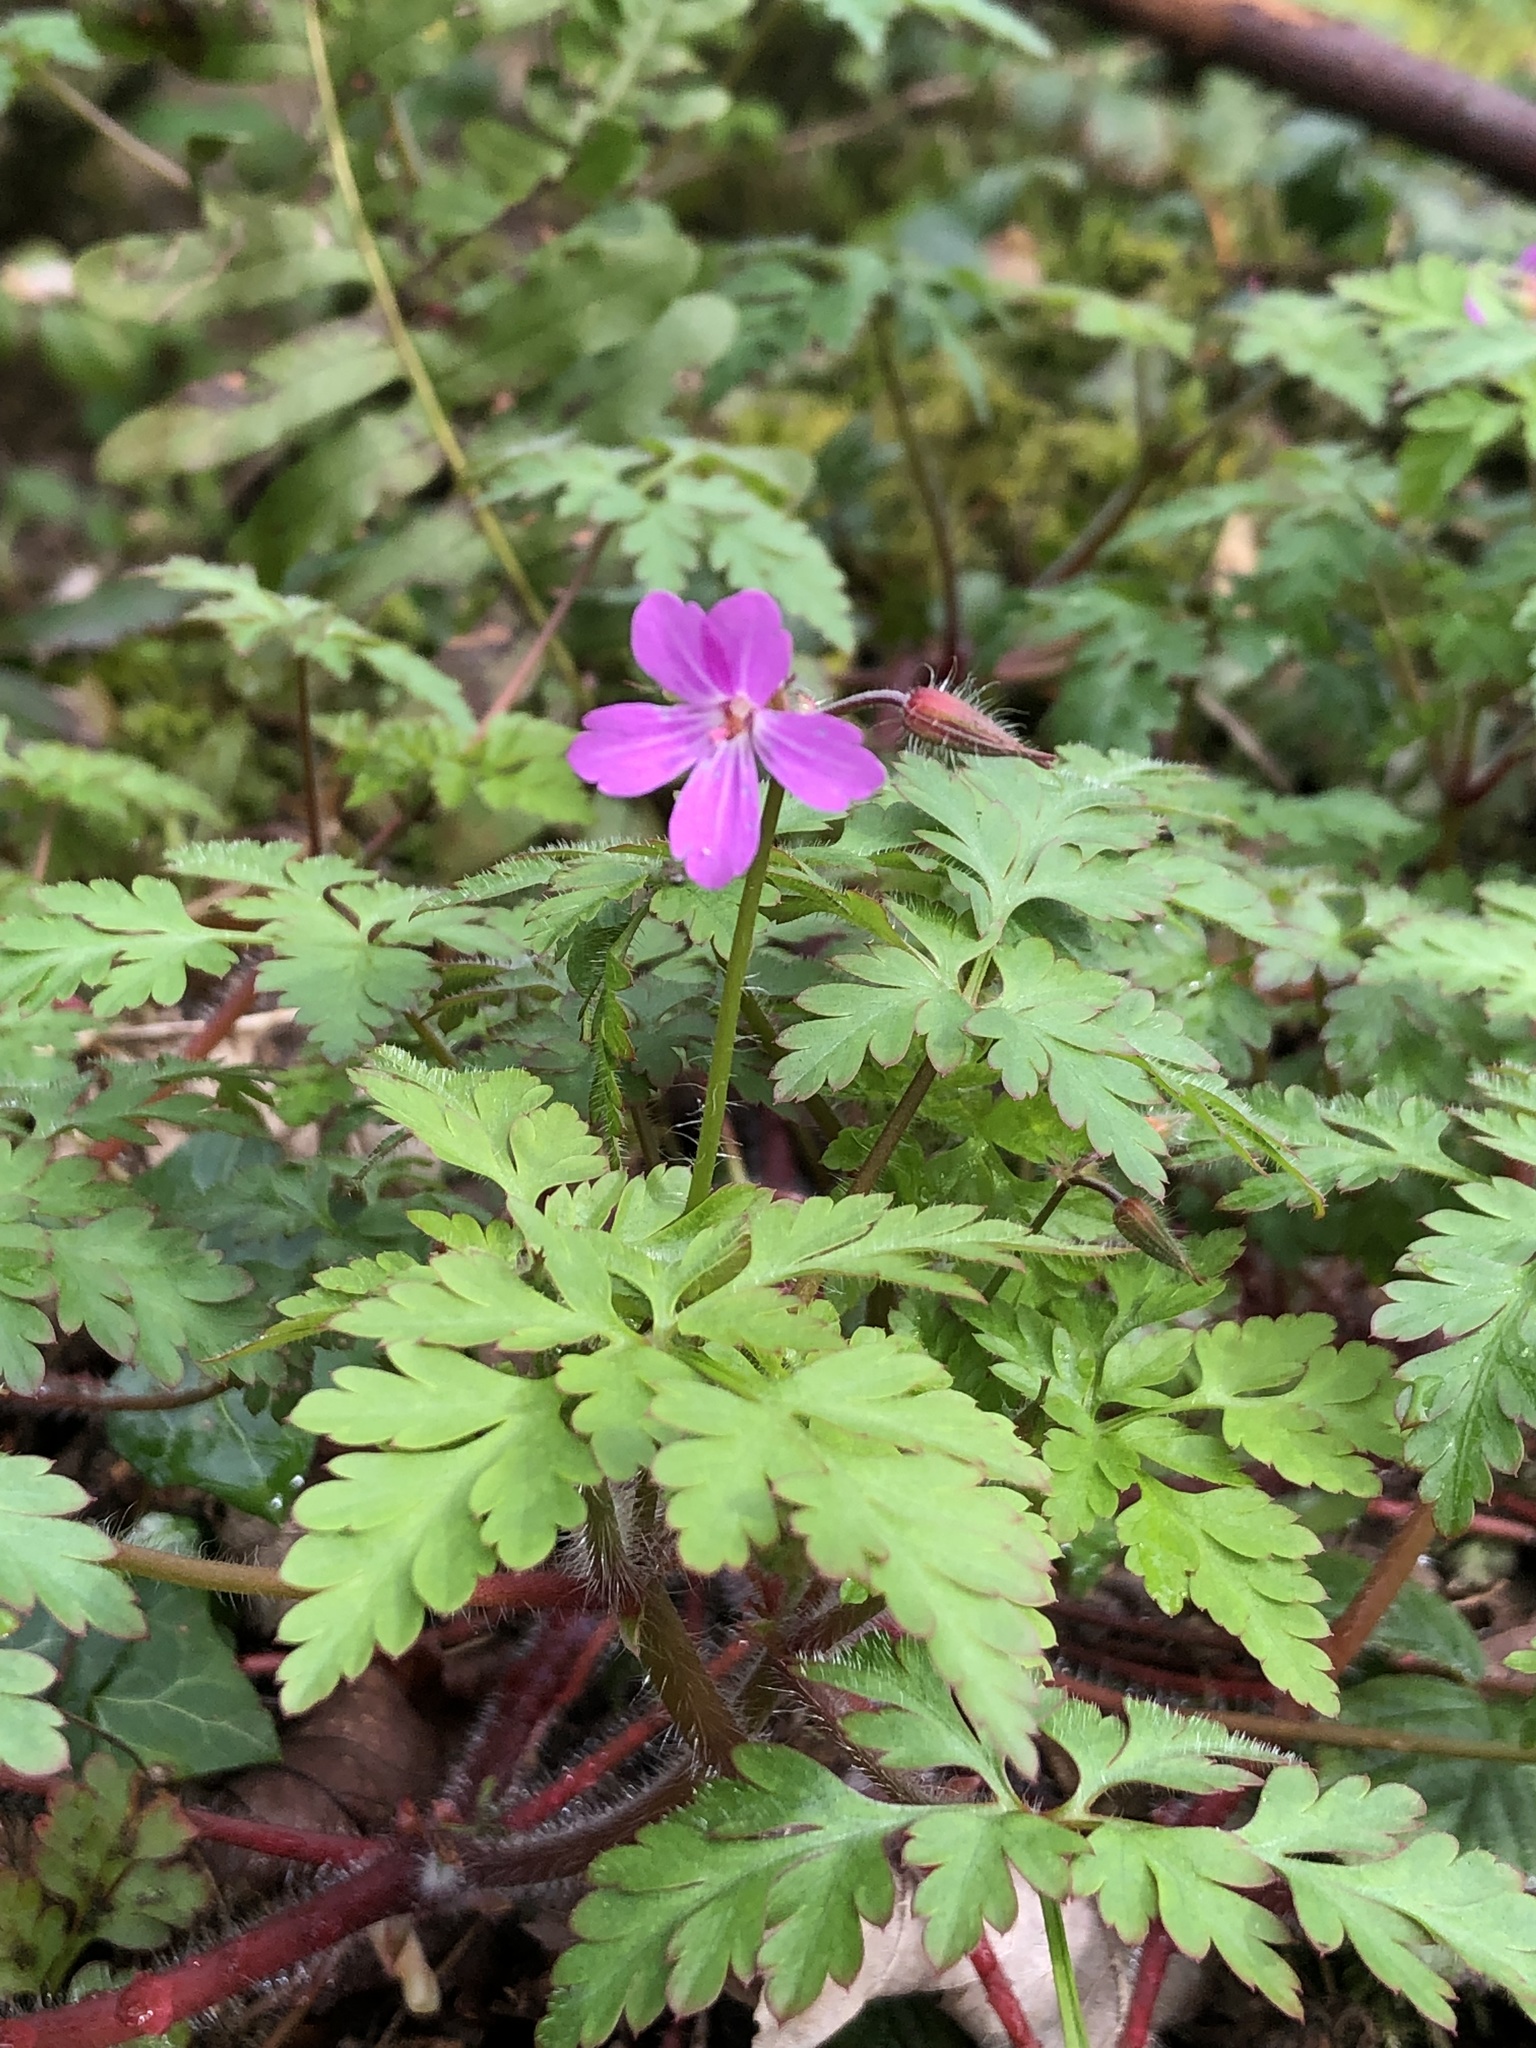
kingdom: Plantae
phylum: Tracheophyta
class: Magnoliopsida
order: Geraniales
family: Geraniaceae
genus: Geranium
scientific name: Geranium robertianum
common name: Herb-robert
